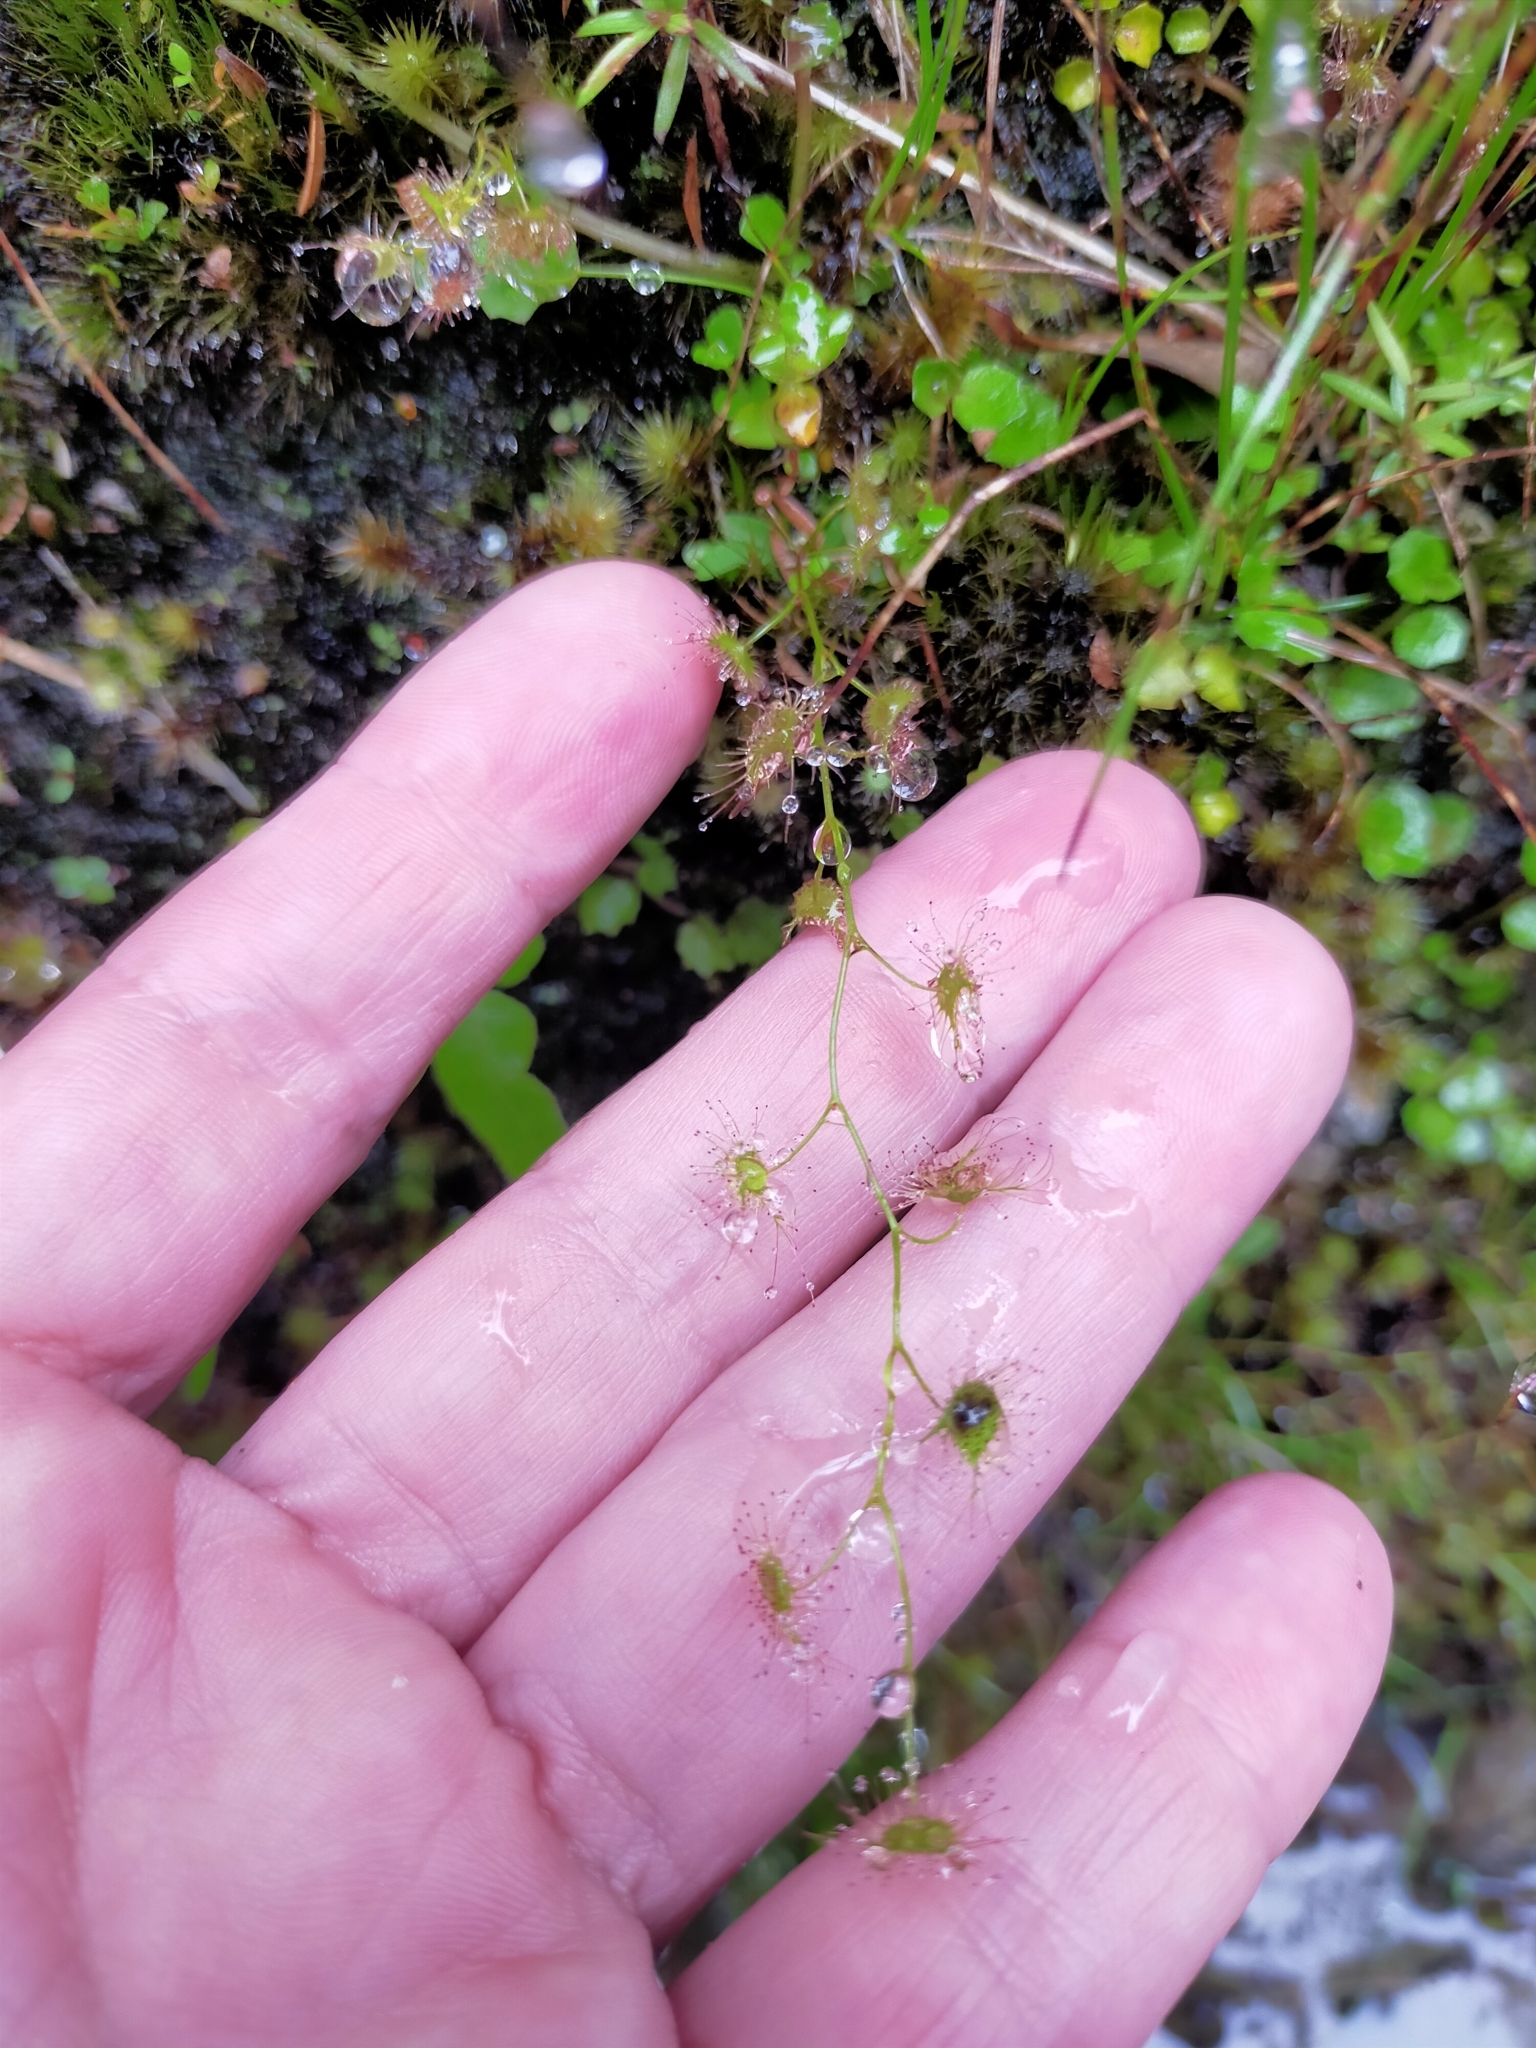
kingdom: Plantae
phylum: Tracheophyta
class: Magnoliopsida
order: Caryophyllales
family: Droseraceae
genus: Drosera
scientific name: Drosera peltata
